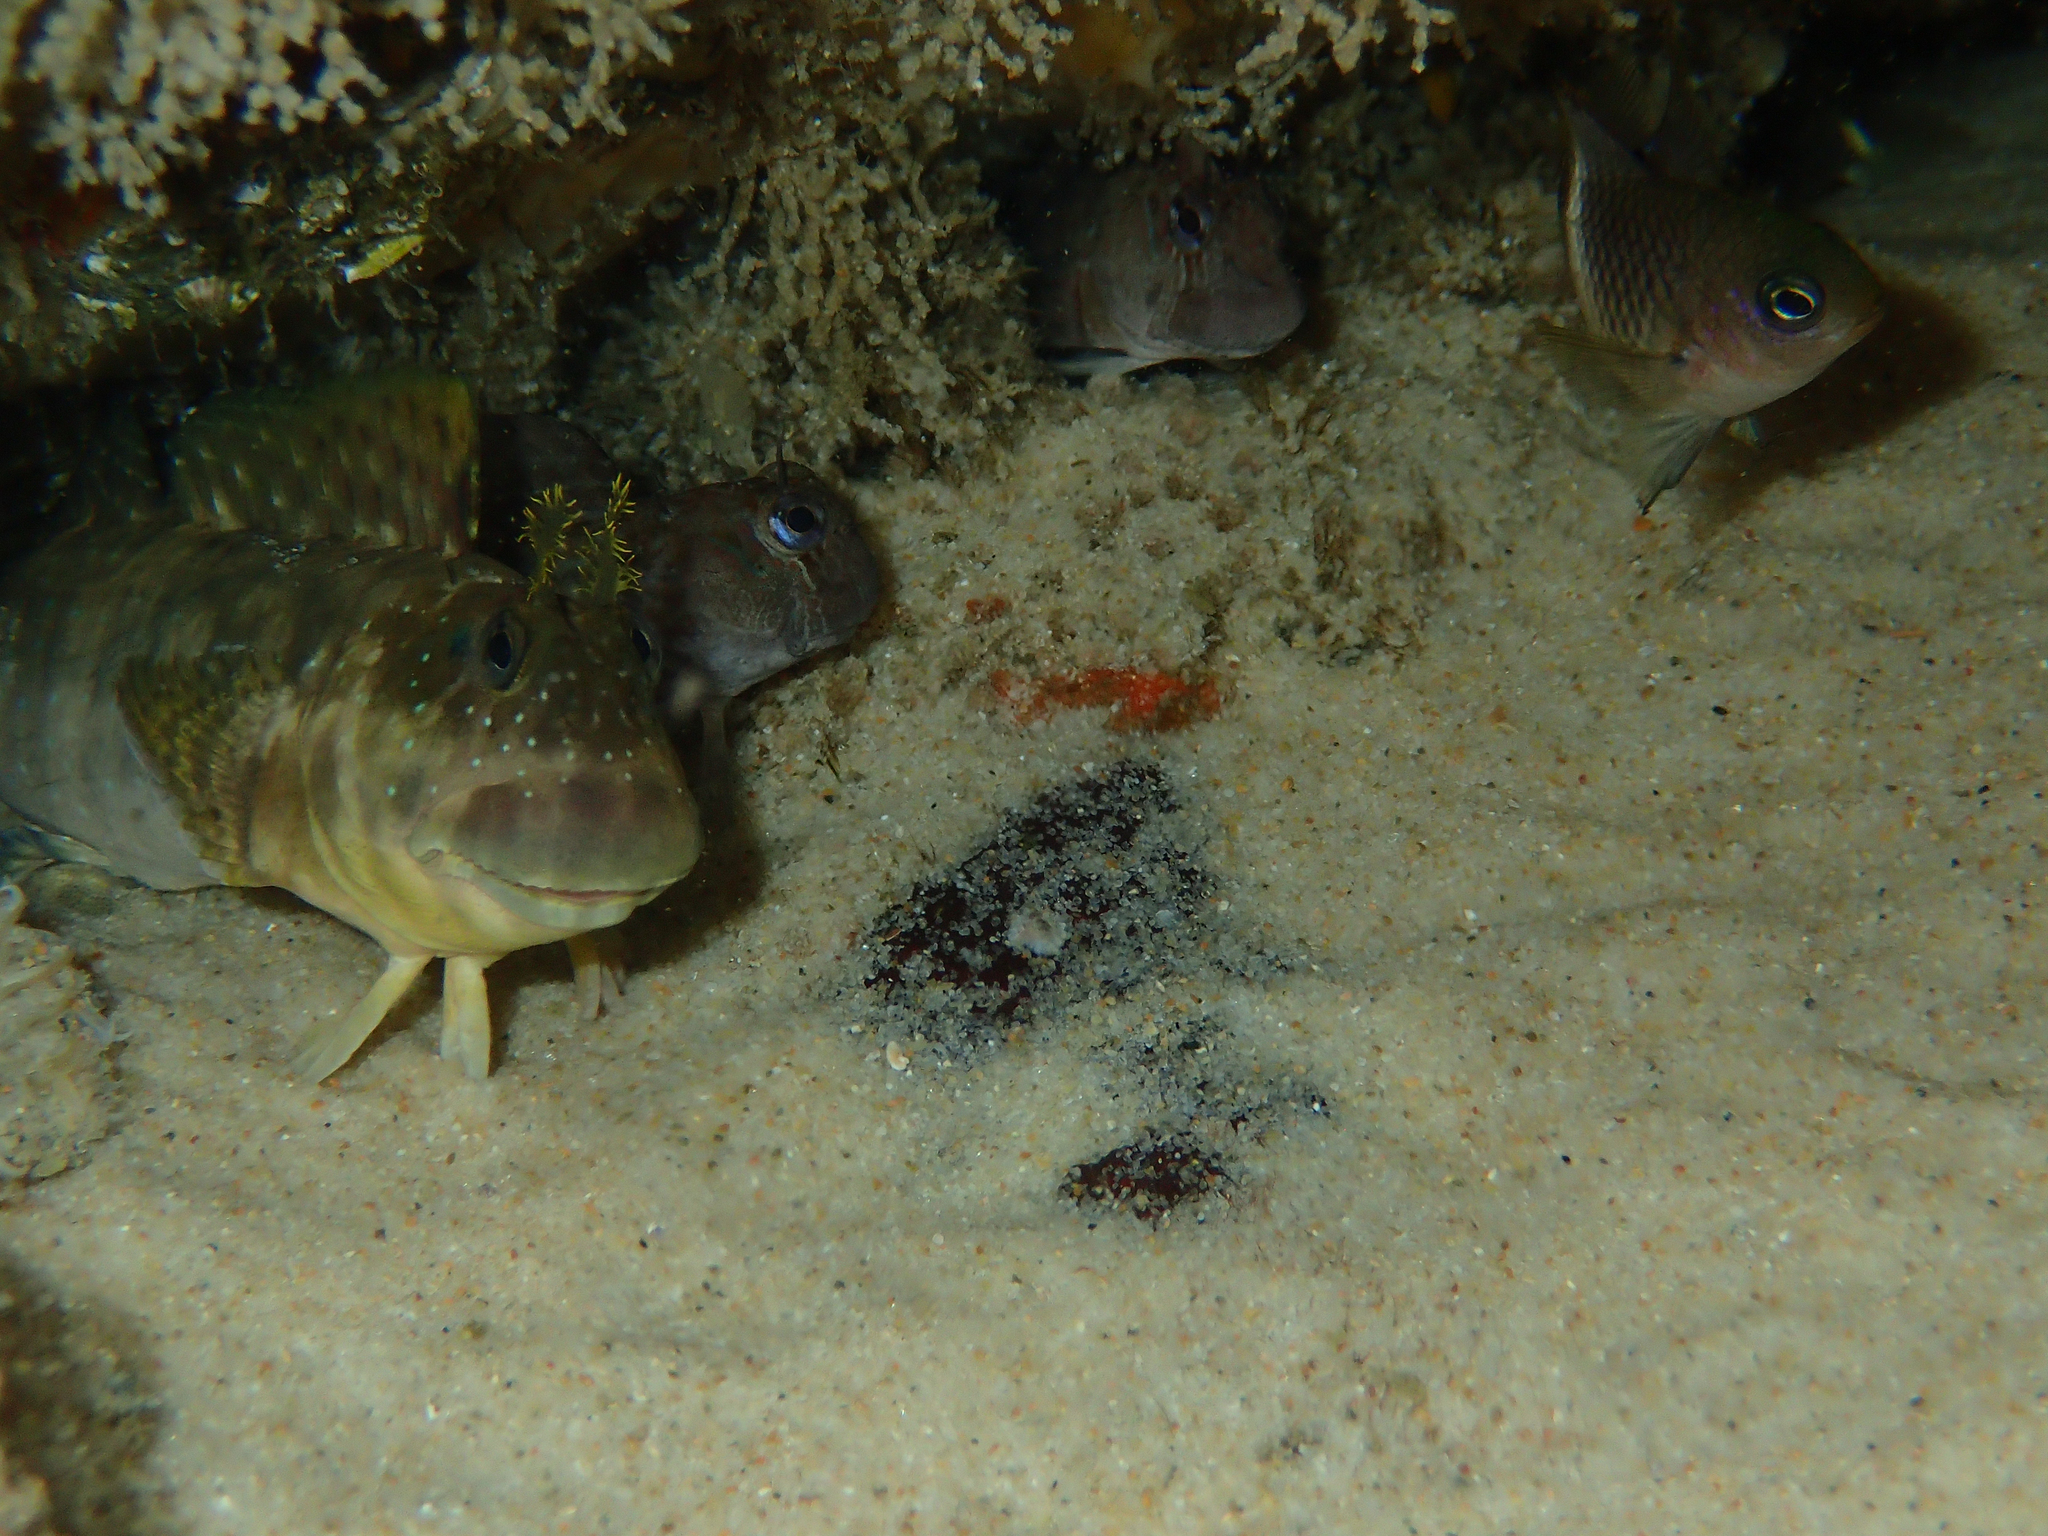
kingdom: Animalia
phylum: Chordata
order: Perciformes
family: Pomacentridae
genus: Plectroglyphidodon
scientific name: Plectroglyphidodon leucozonus
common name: White-band damsel
